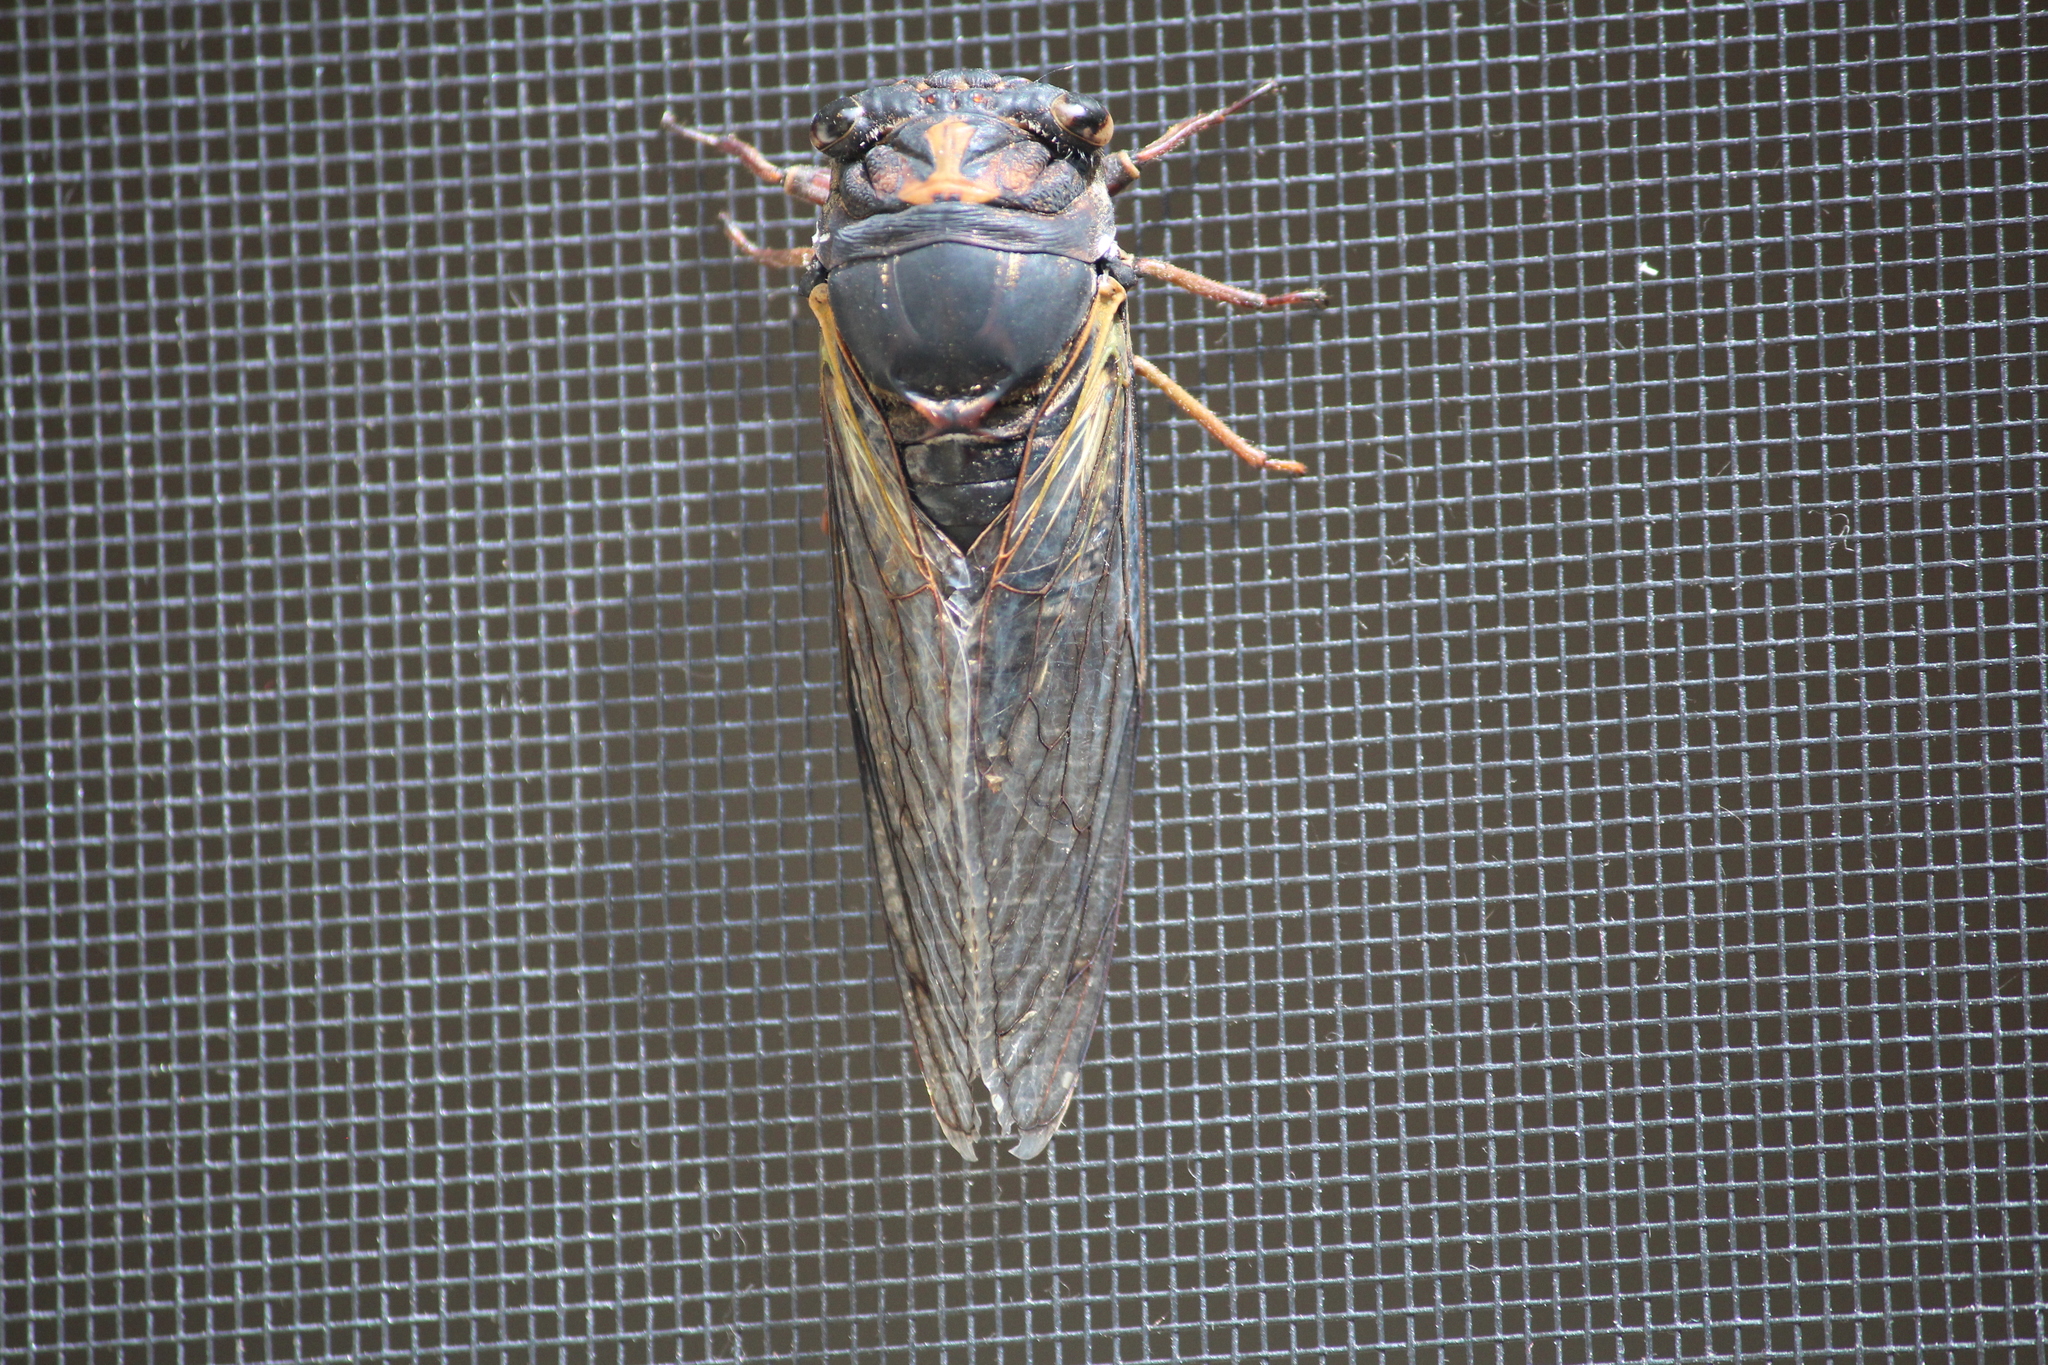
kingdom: Animalia
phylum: Arthropoda
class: Insecta
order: Hemiptera
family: Cicadidae
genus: Neotibicen
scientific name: Neotibicen lyricen
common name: Lyric cicada
